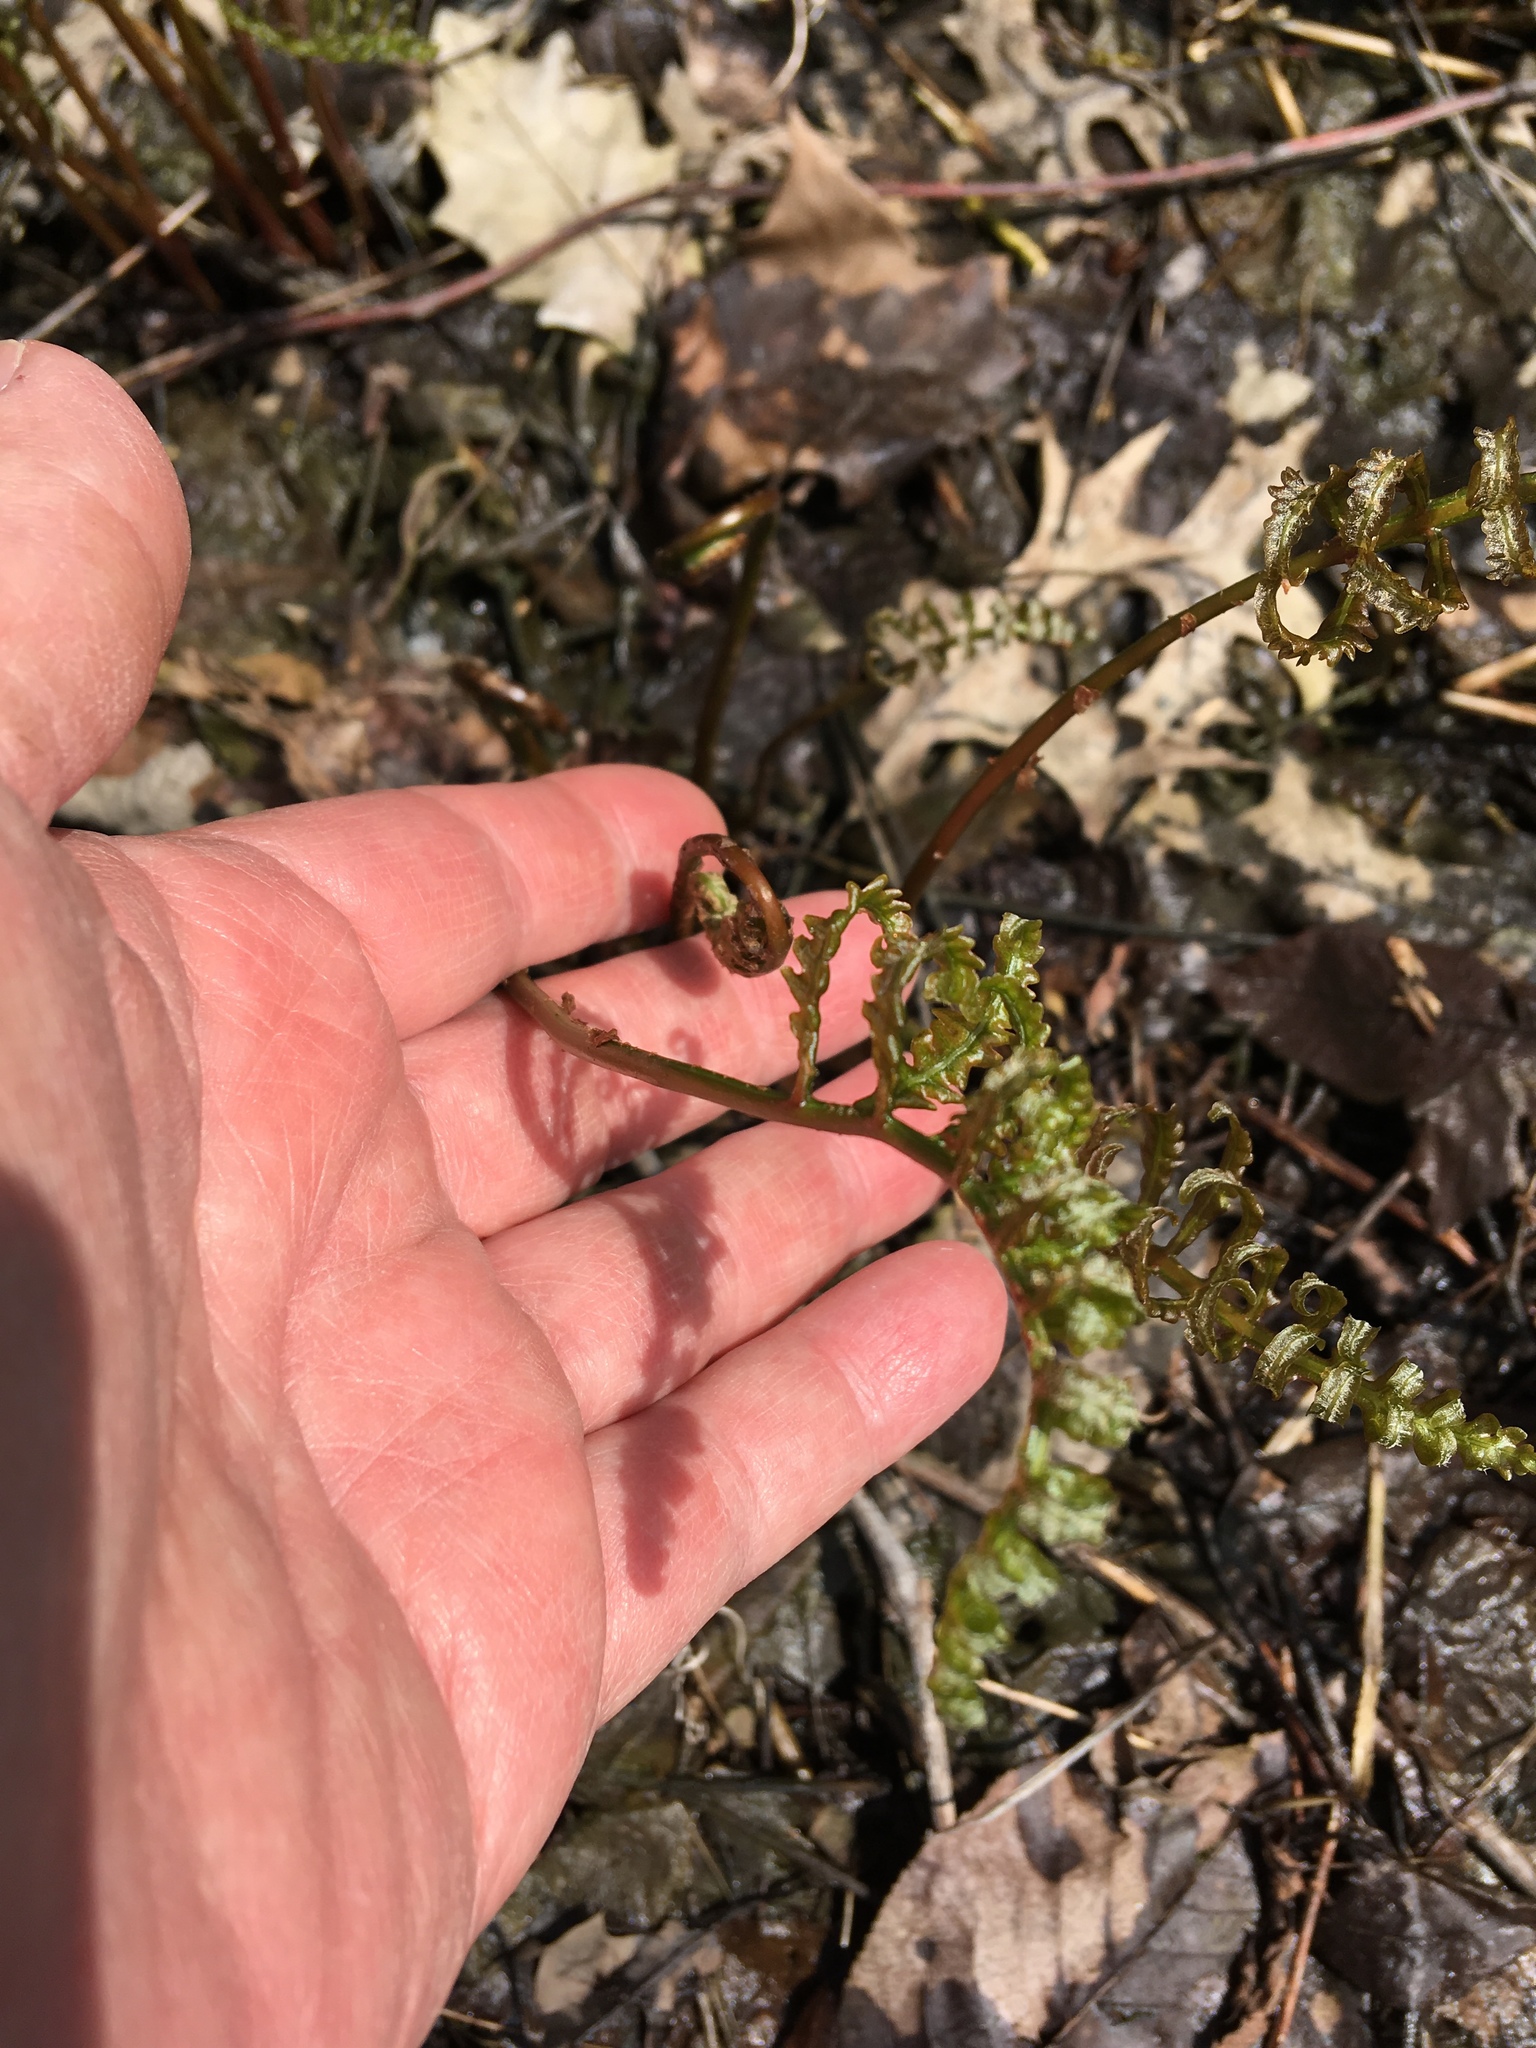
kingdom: Plantae
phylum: Tracheophyta
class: Polypodiopsida
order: Polypodiales
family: Onocleaceae
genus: Onoclea
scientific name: Onoclea sensibilis
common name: Sensitive fern
